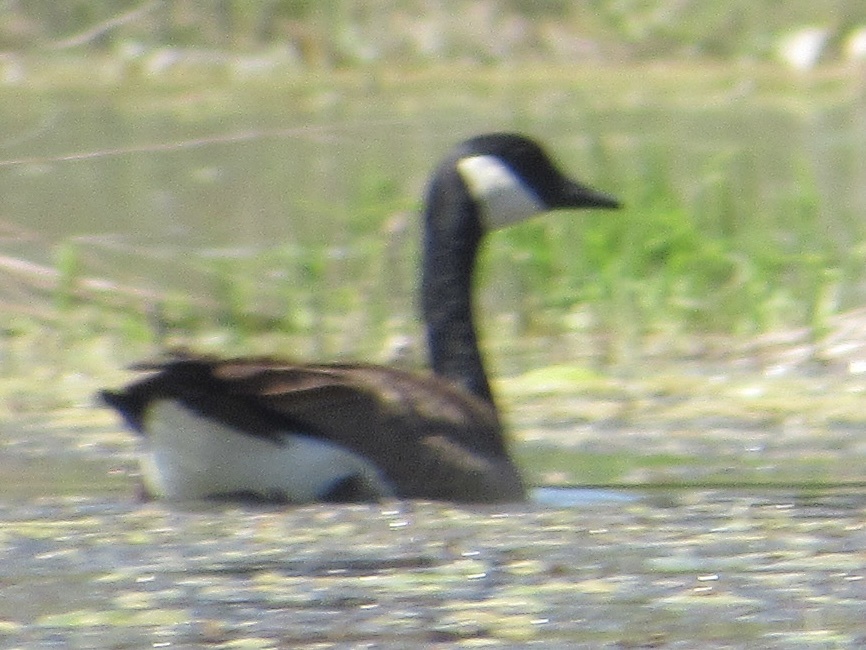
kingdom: Animalia
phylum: Chordata
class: Aves
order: Anseriformes
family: Anatidae
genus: Branta
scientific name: Branta canadensis
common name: Canada goose
